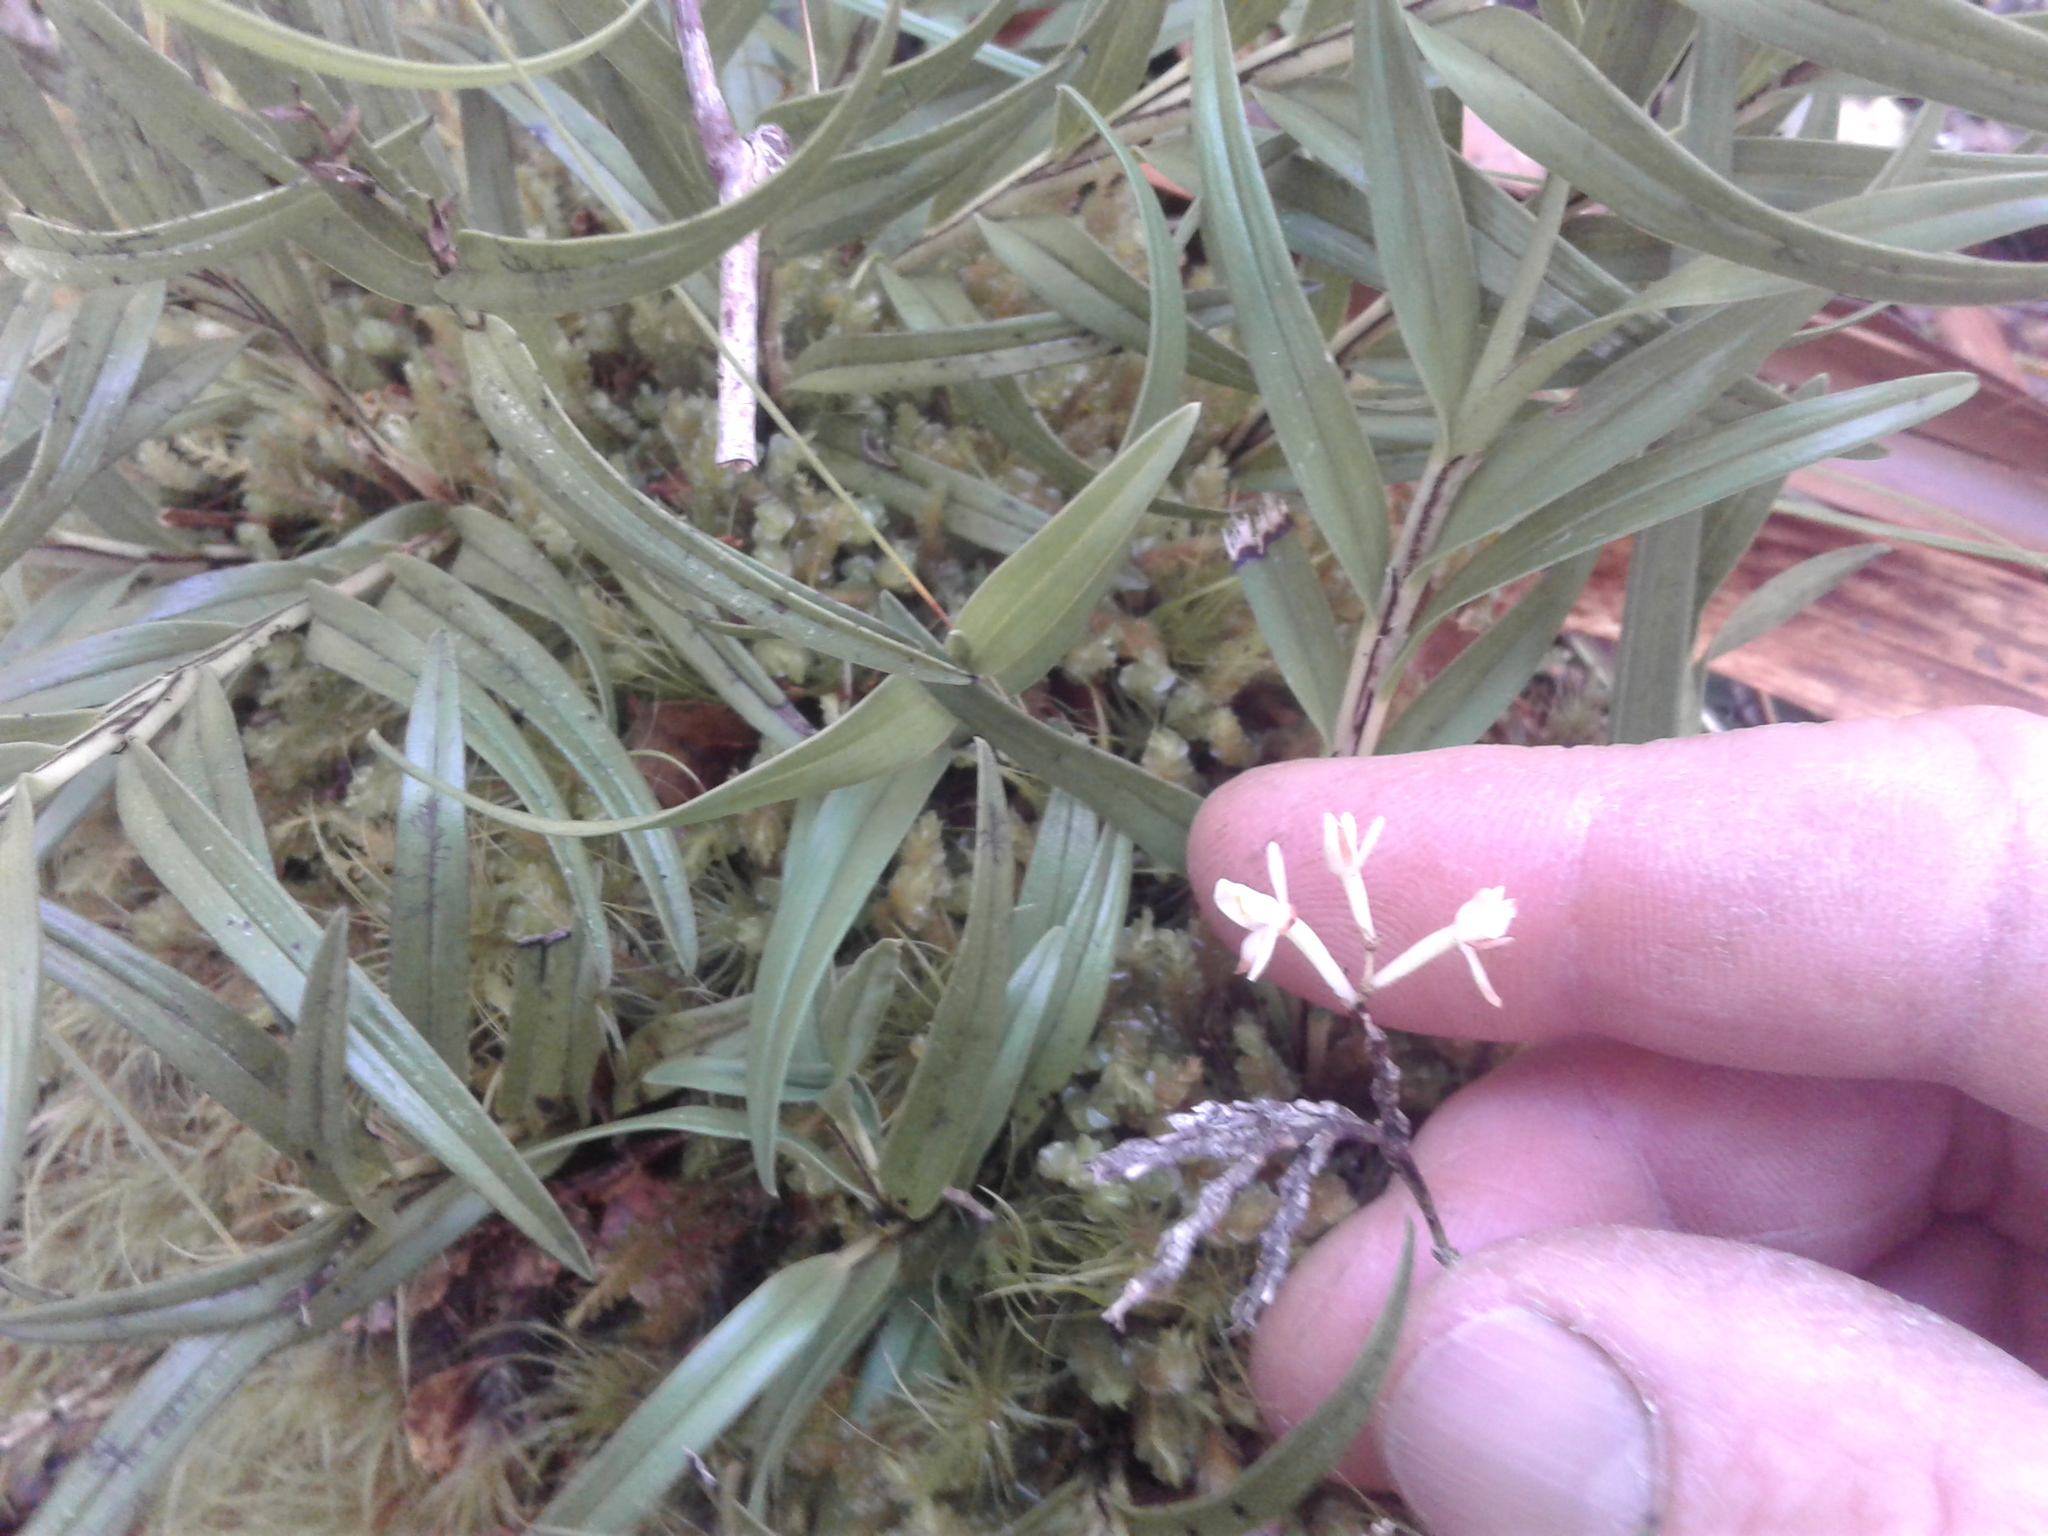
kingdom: Plantae
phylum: Tracheophyta
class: Liliopsida
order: Asparagales
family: Orchidaceae
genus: Earina
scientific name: Earina autumnalis
